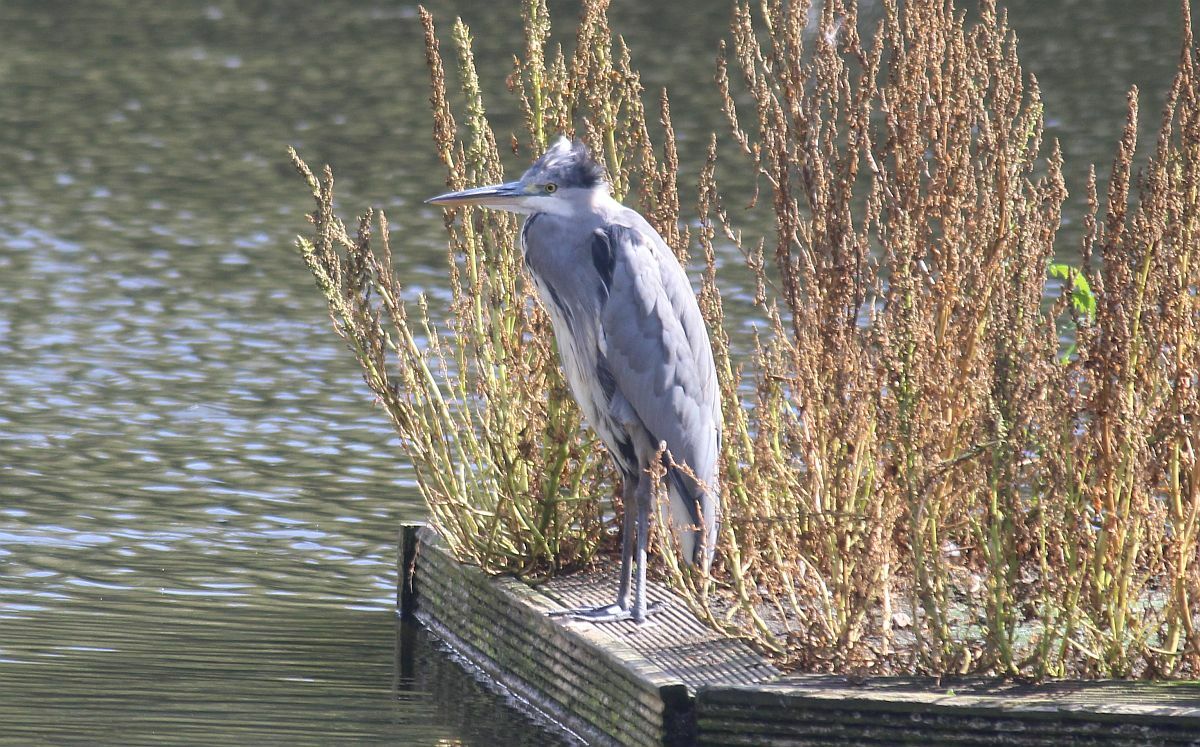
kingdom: Animalia
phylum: Chordata
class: Aves
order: Pelecaniformes
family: Ardeidae
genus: Ardea
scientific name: Ardea cinerea
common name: Grey heron
